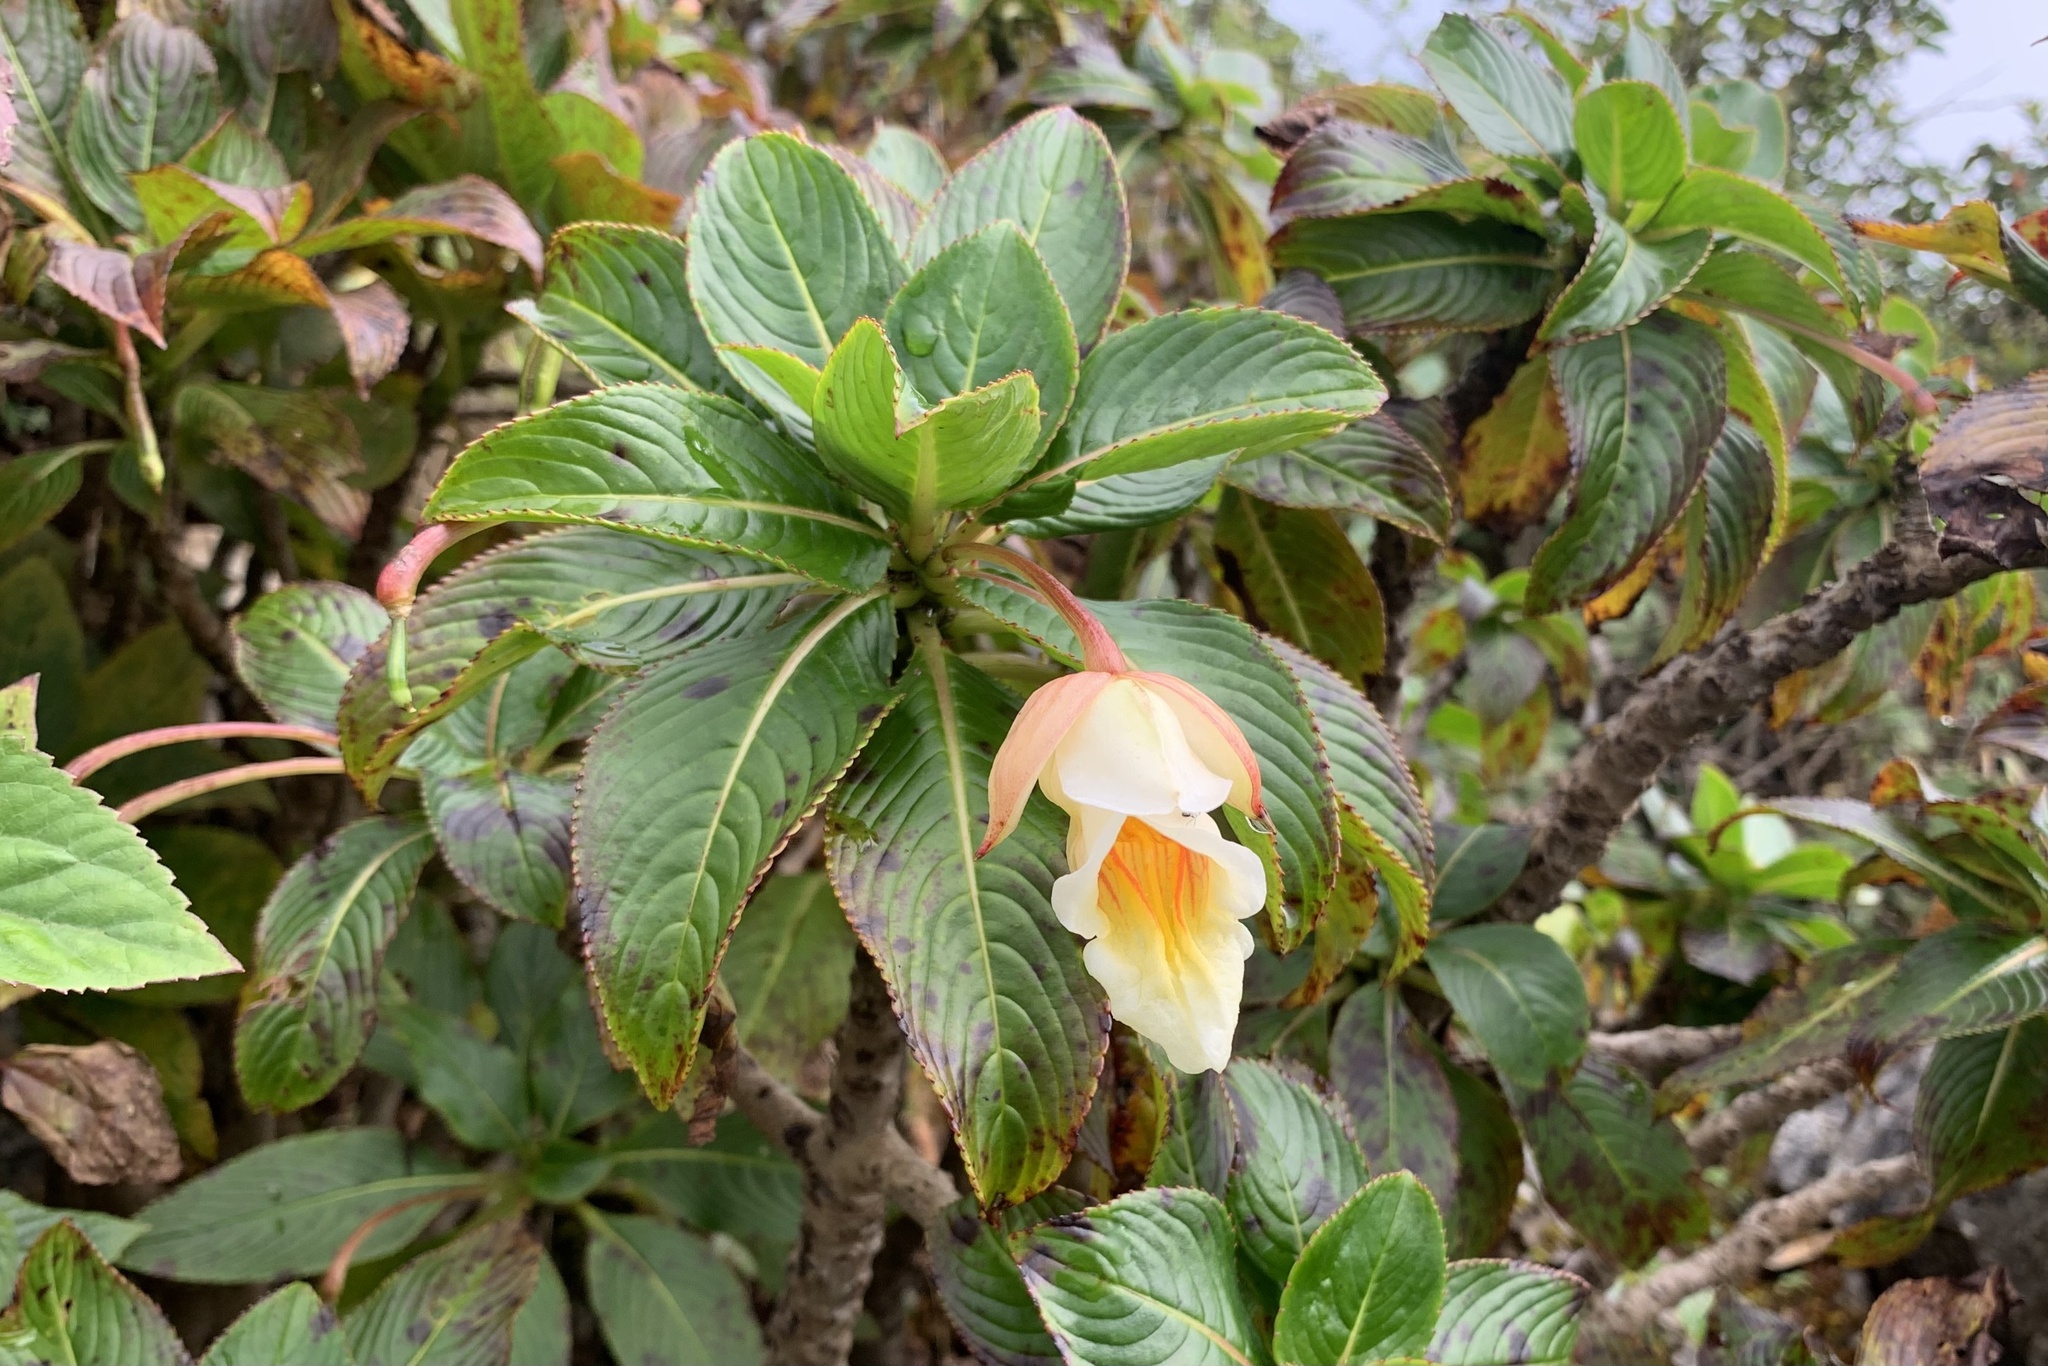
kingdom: Plantae
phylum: Tracheophyta
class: Magnoliopsida
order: Ericales
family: Balsaminaceae
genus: Impatiens
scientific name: Impatiens kerriae
